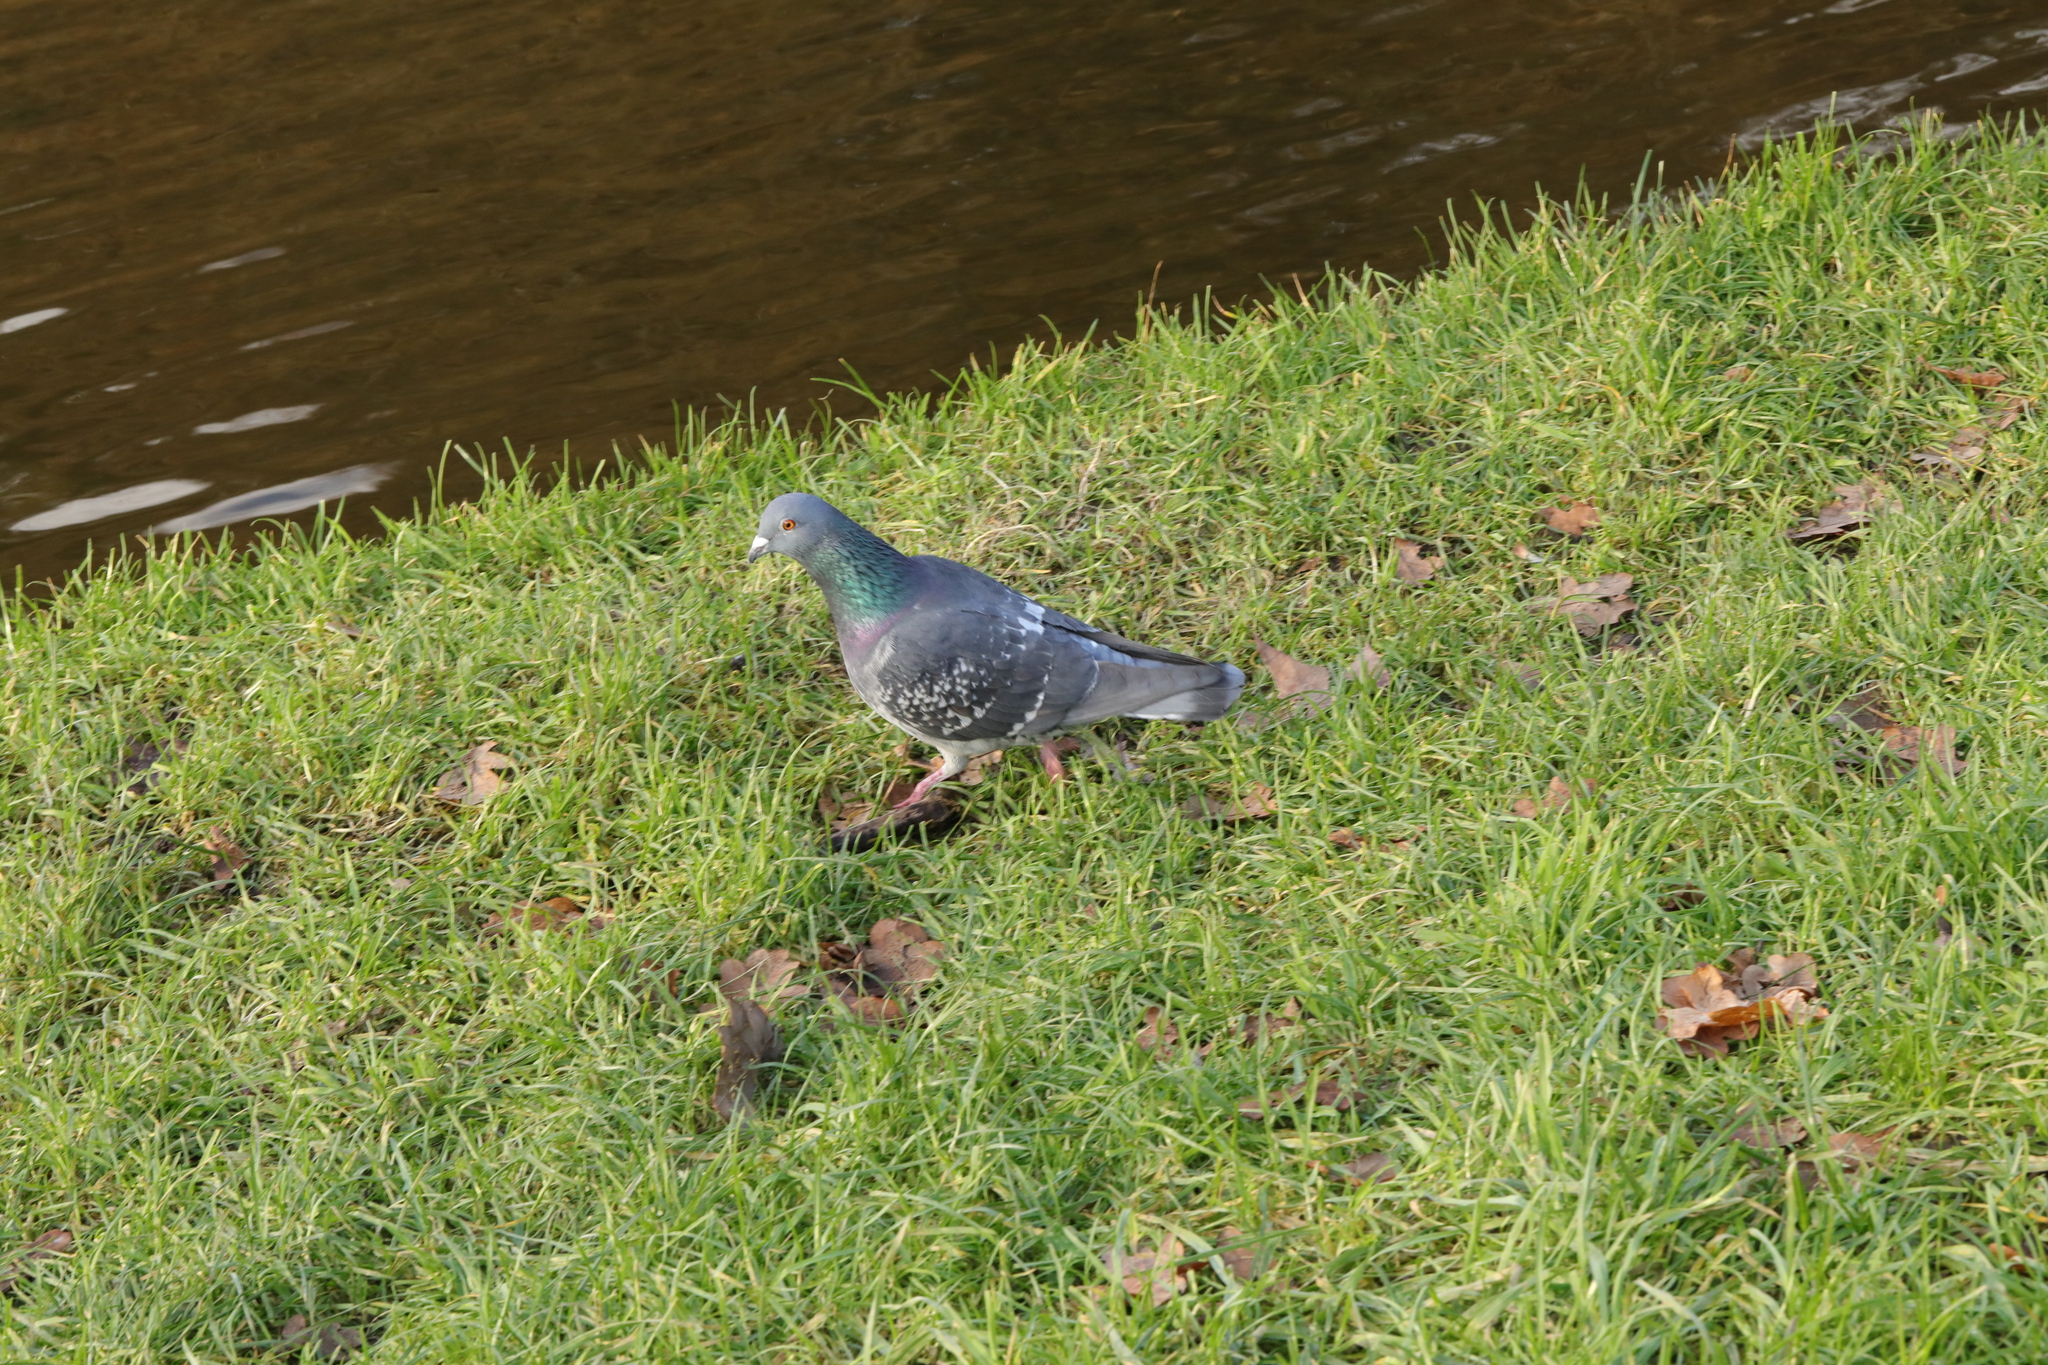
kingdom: Animalia
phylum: Chordata
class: Aves
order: Columbiformes
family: Columbidae
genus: Columba
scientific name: Columba livia
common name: Rock pigeon
